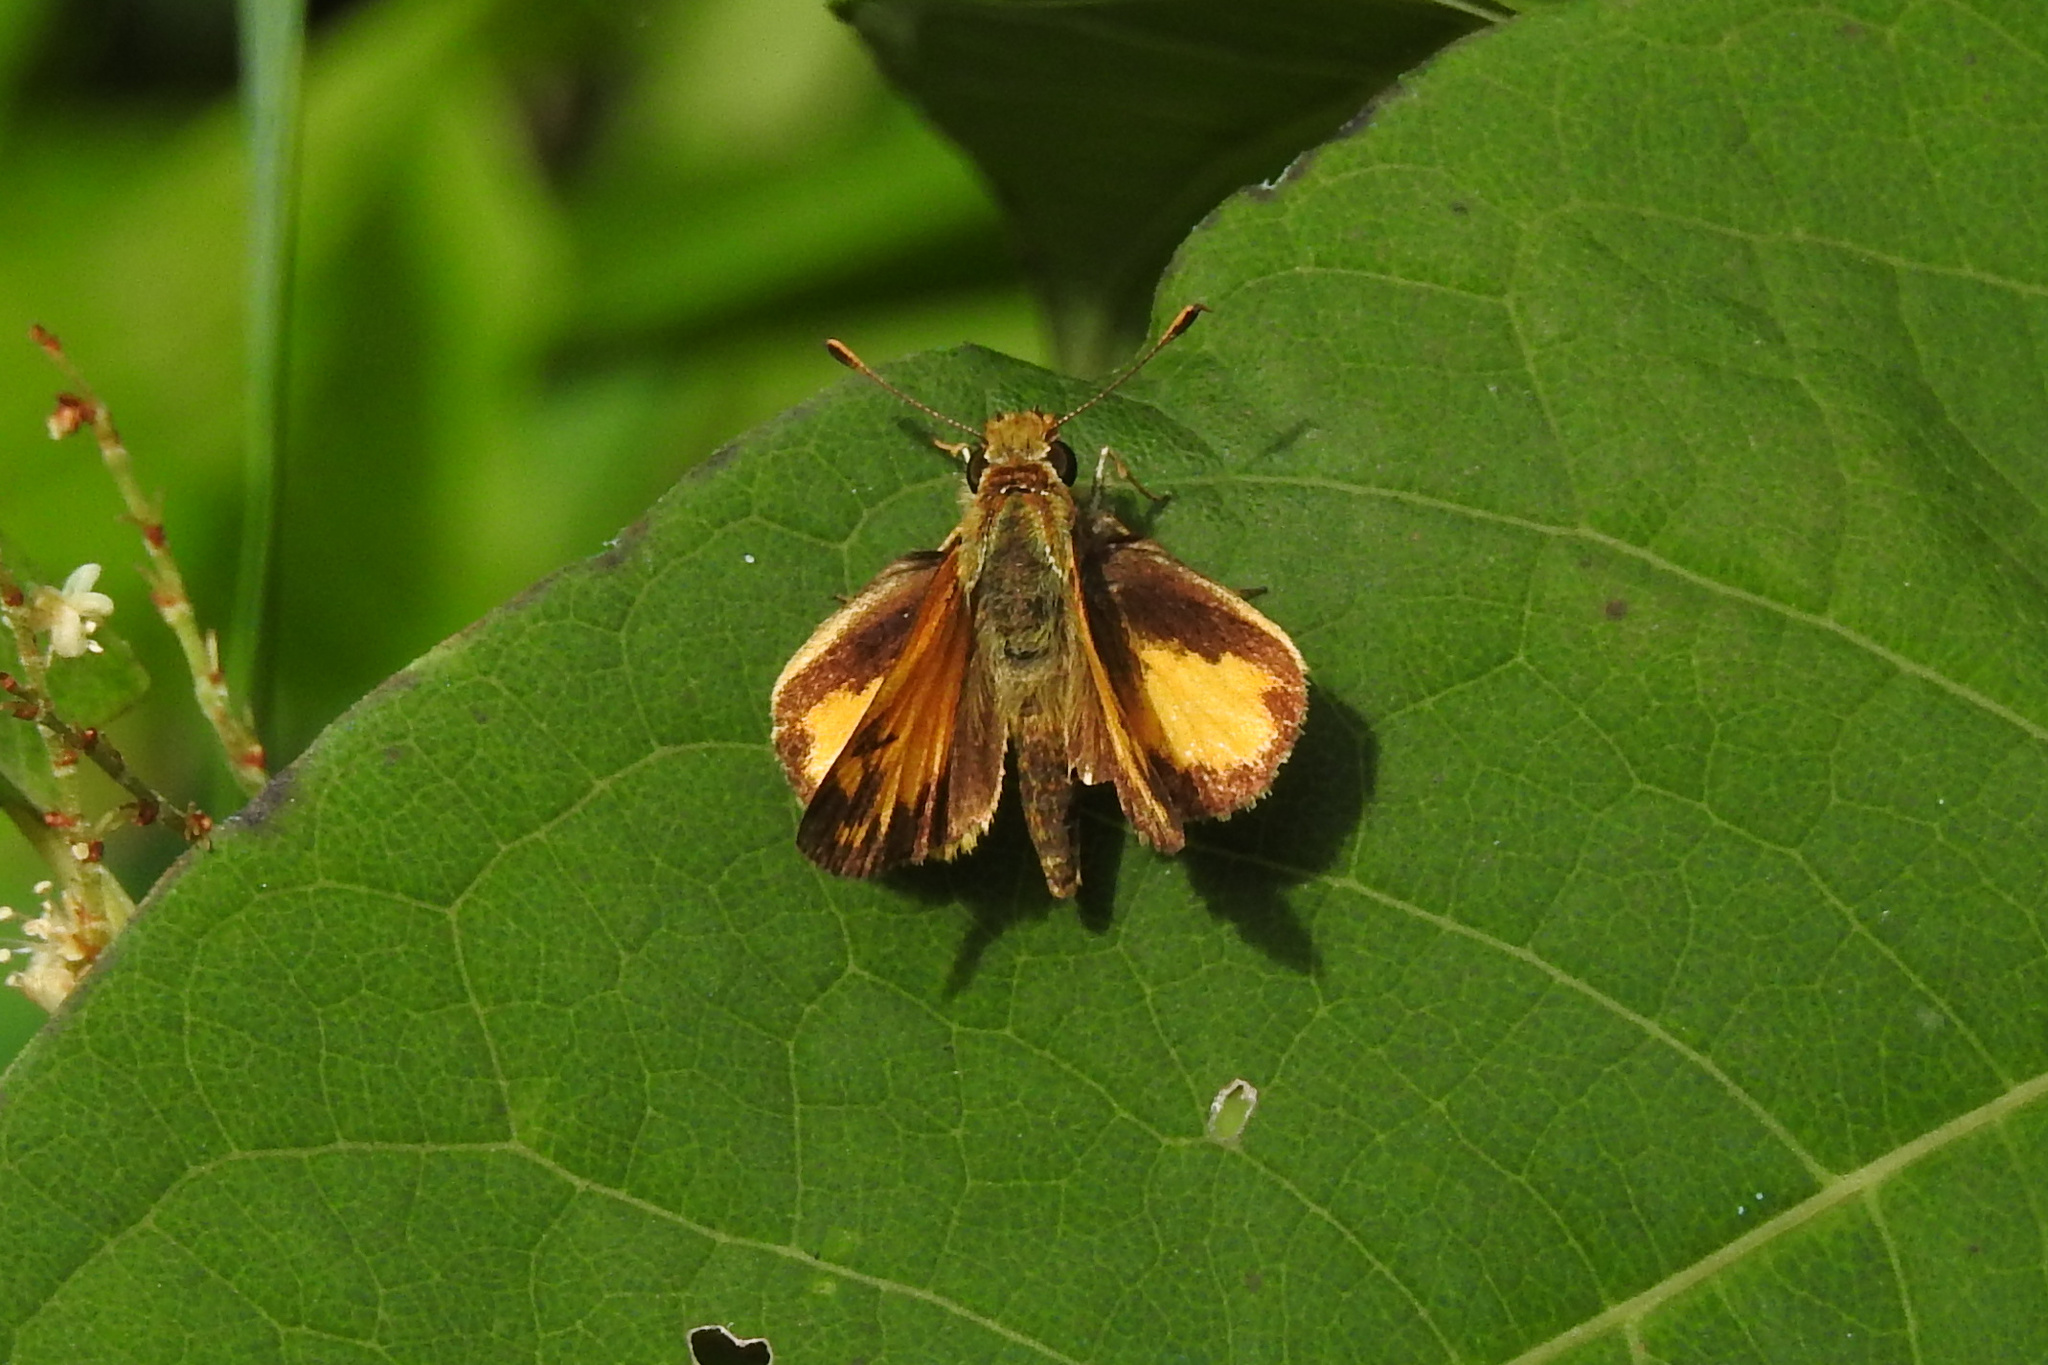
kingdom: Animalia
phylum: Arthropoda
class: Insecta
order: Lepidoptera
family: Hesperiidae
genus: Lon
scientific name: Lon zabulon
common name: Zabulon skipper
